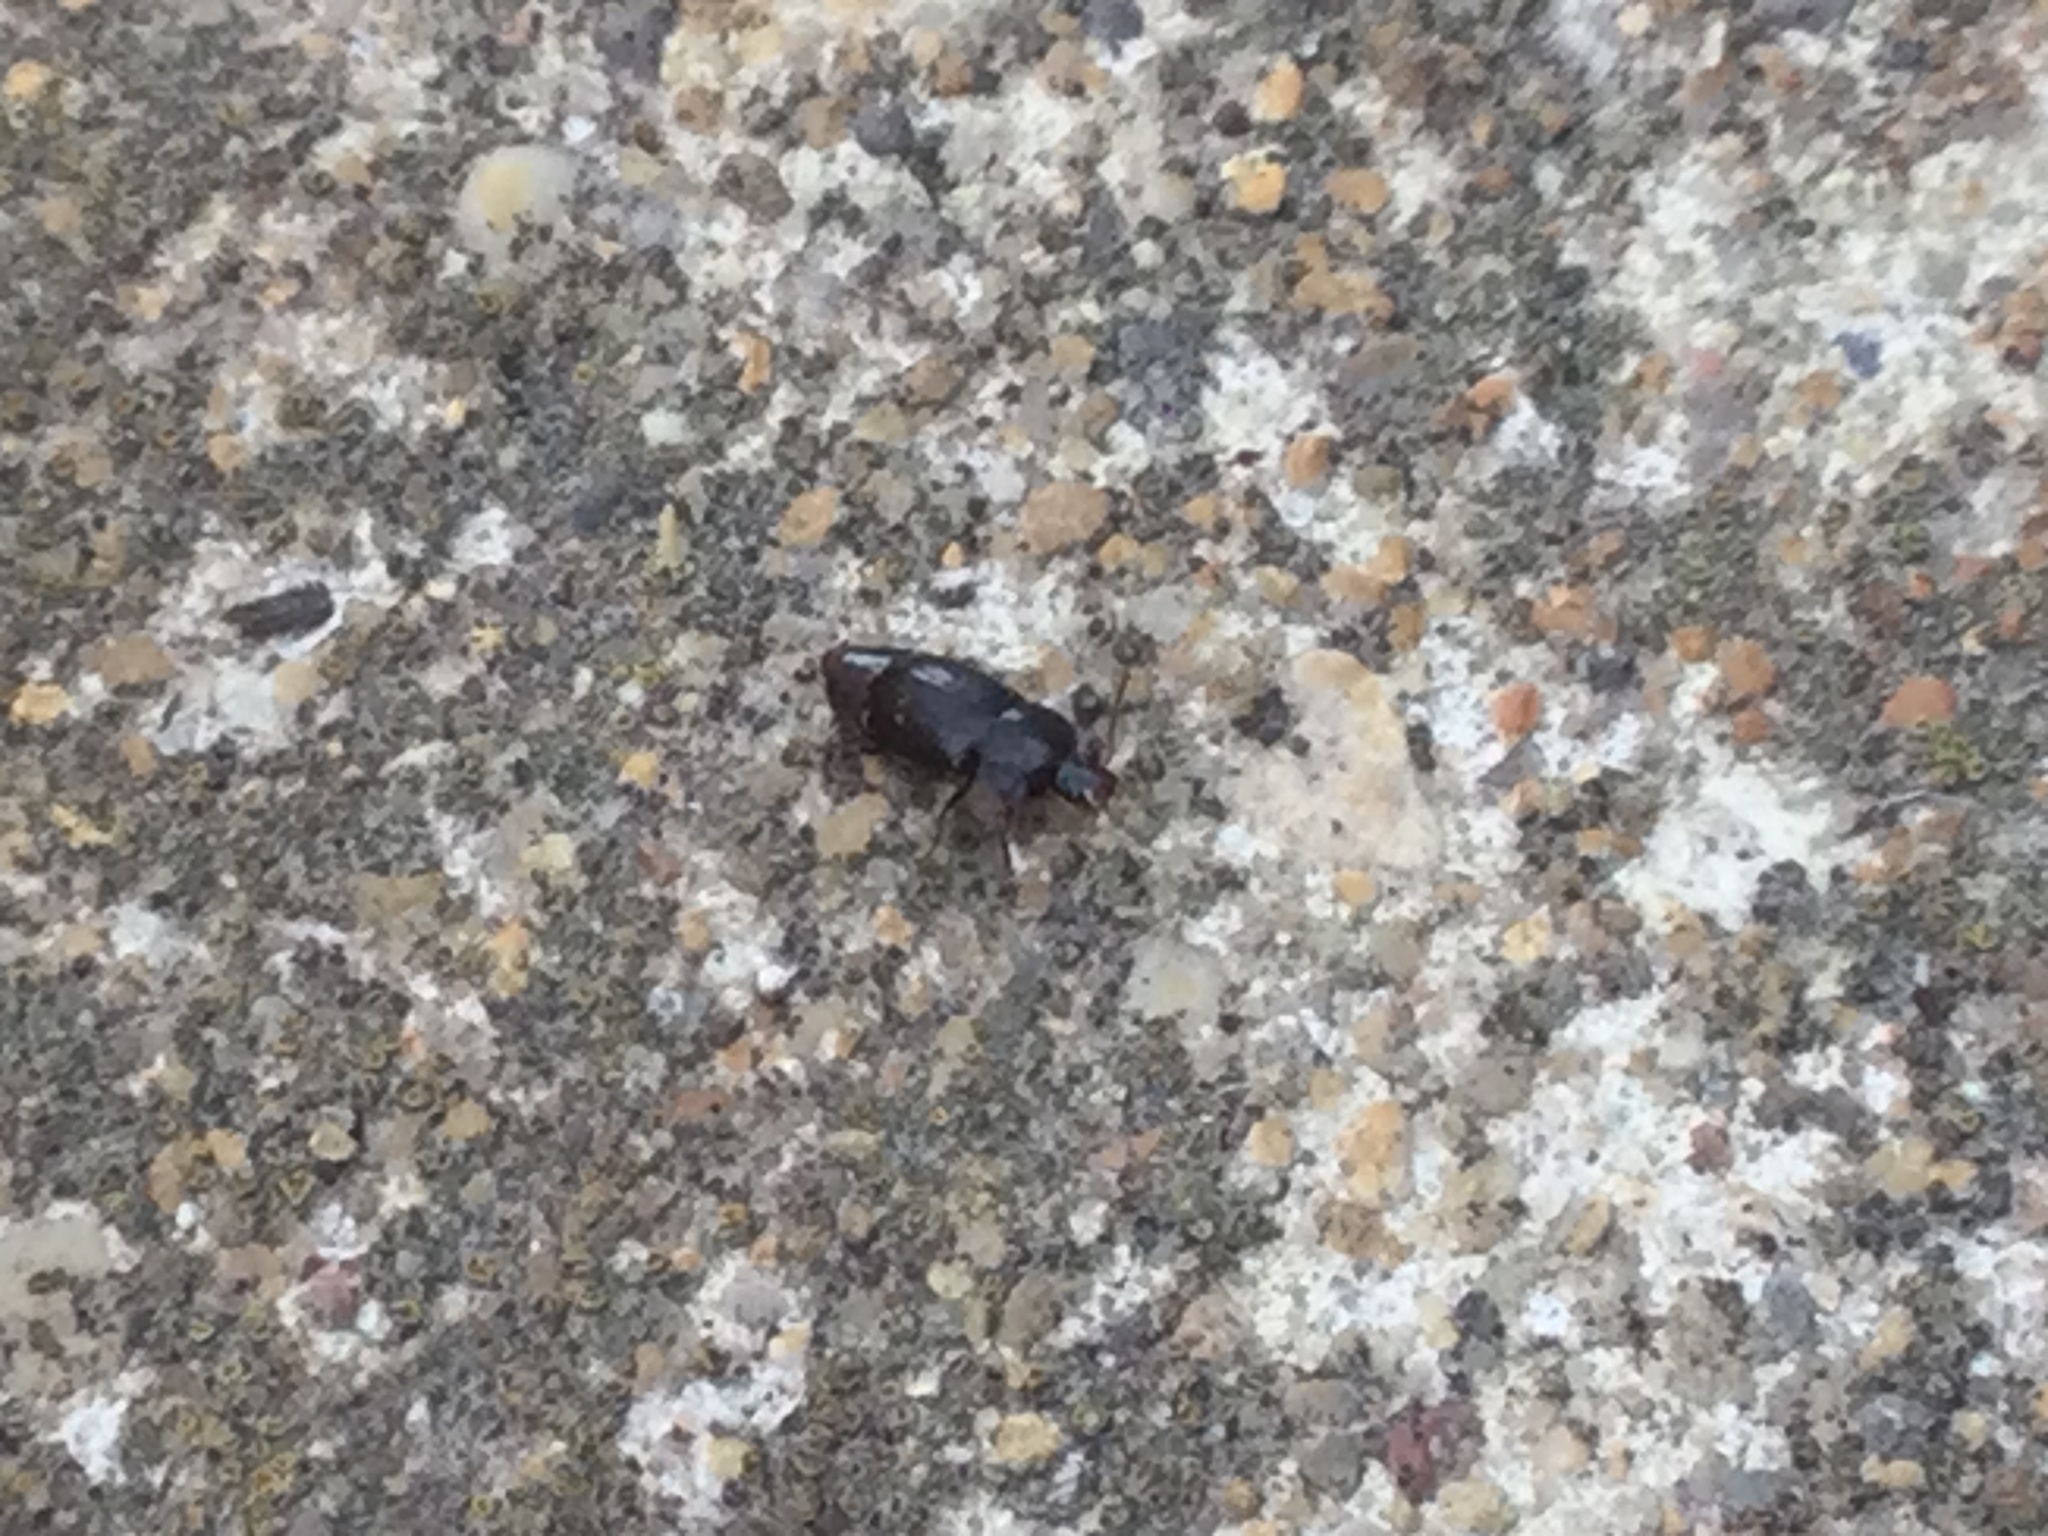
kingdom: Animalia
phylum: Arthropoda
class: Insecta
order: Coleoptera
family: Nitidulidae
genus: Carpophilus
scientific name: Carpophilus
